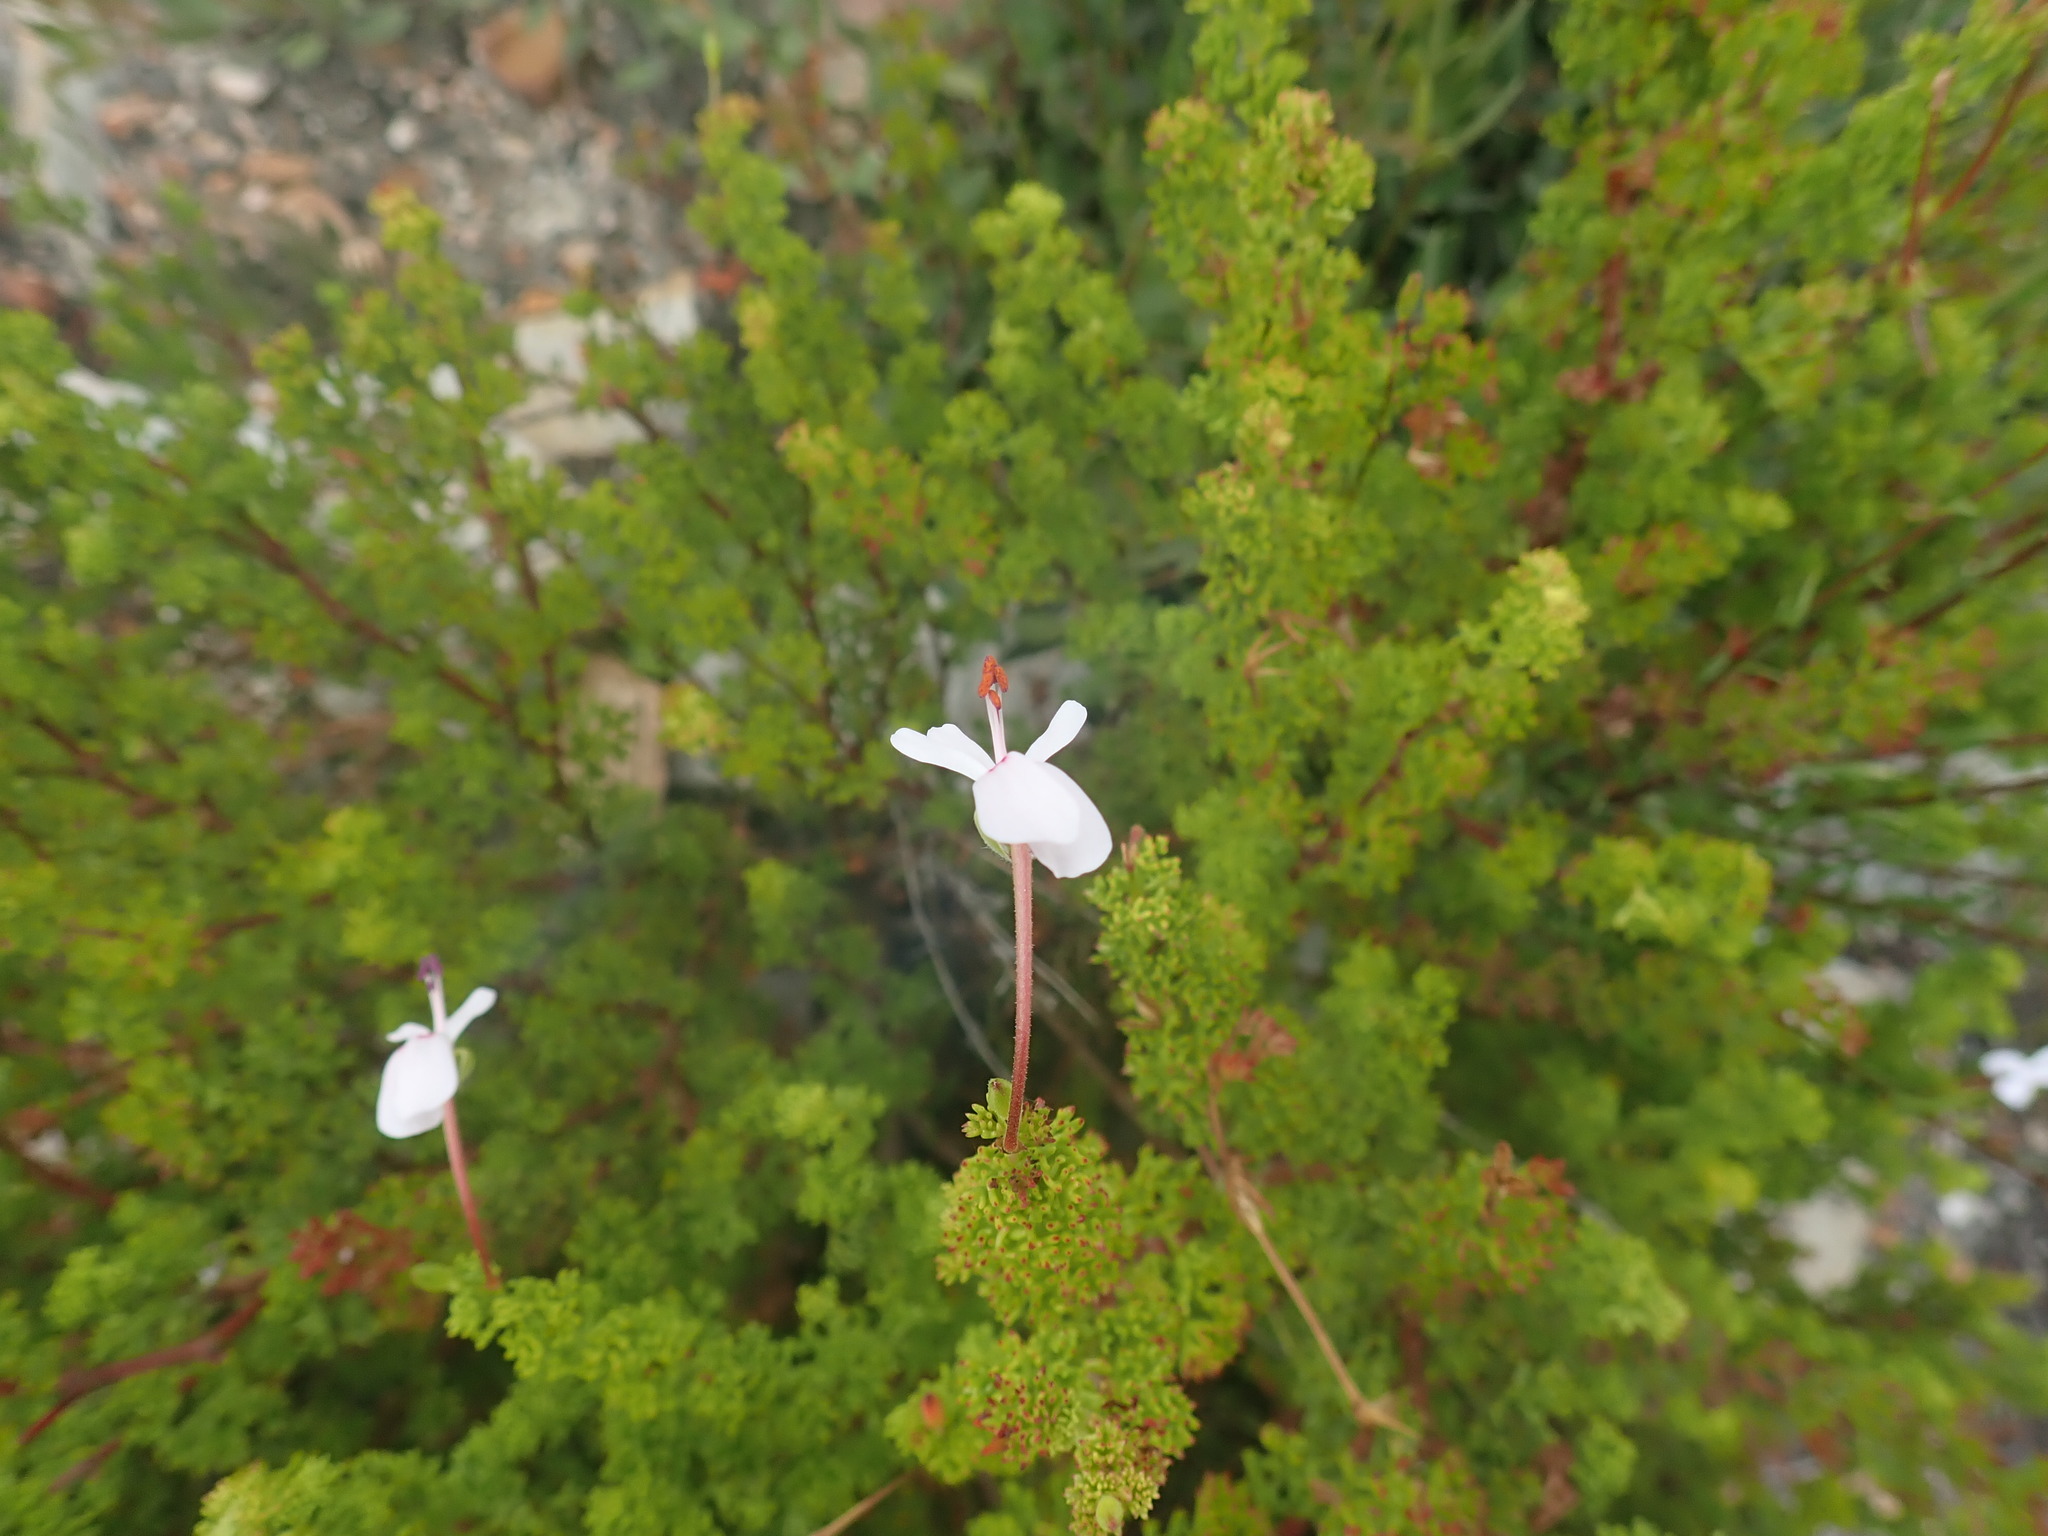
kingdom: Plantae
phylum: Tracheophyta
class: Magnoliopsida
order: Geraniales
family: Geraniaceae
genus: Pelargonium
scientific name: Pelargonium fruticosum
